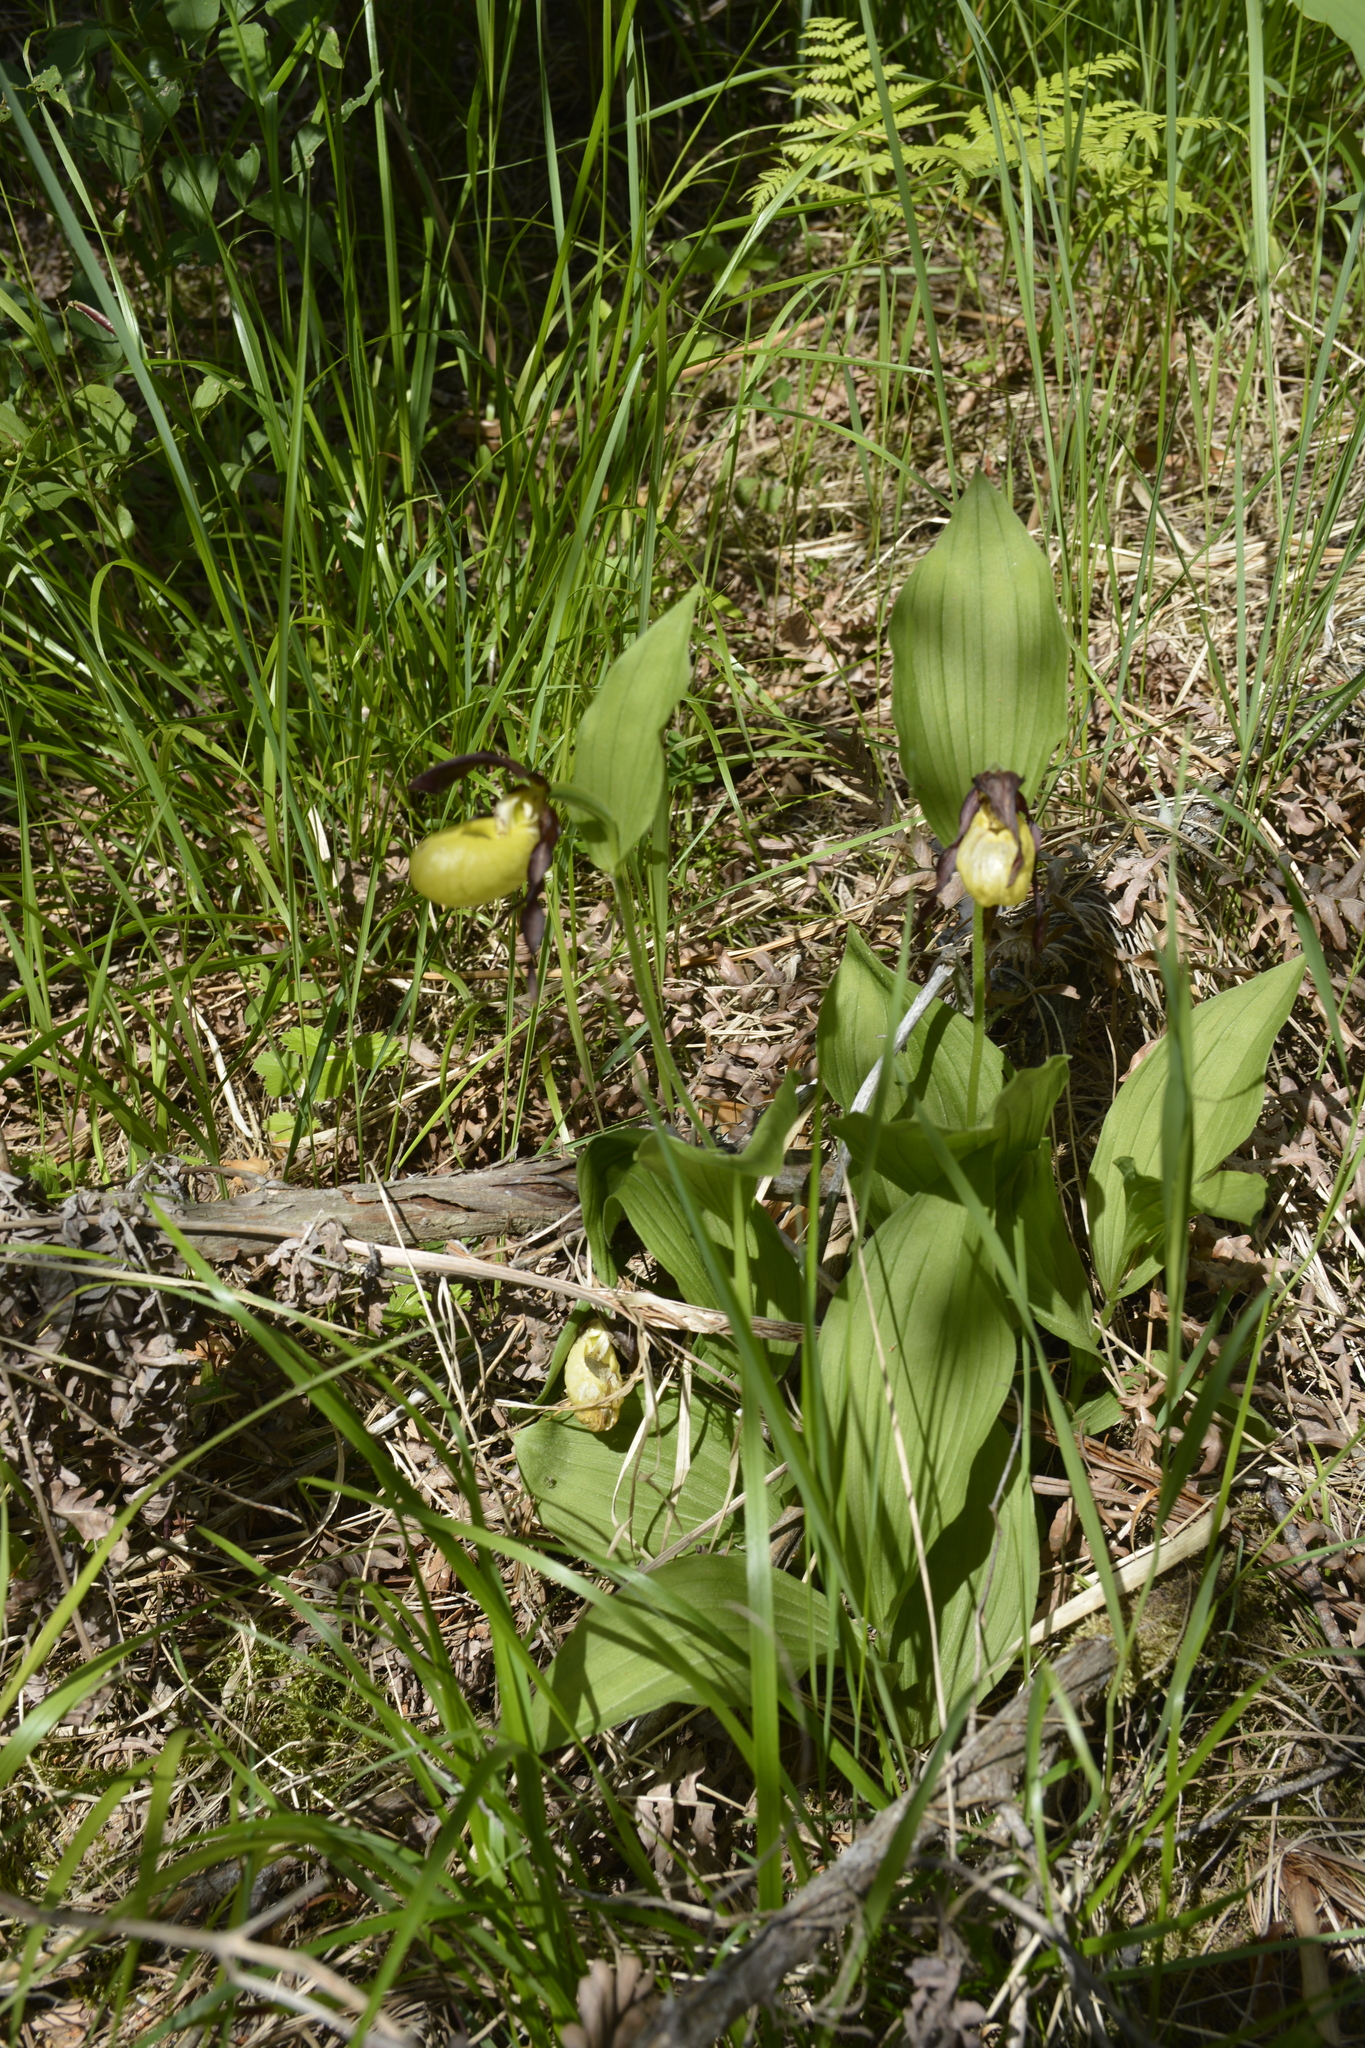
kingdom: Plantae
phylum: Tracheophyta
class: Liliopsida
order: Asparagales
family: Orchidaceae
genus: Cypripedium
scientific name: Cypripedium calceolus
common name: Lady's-slipper
